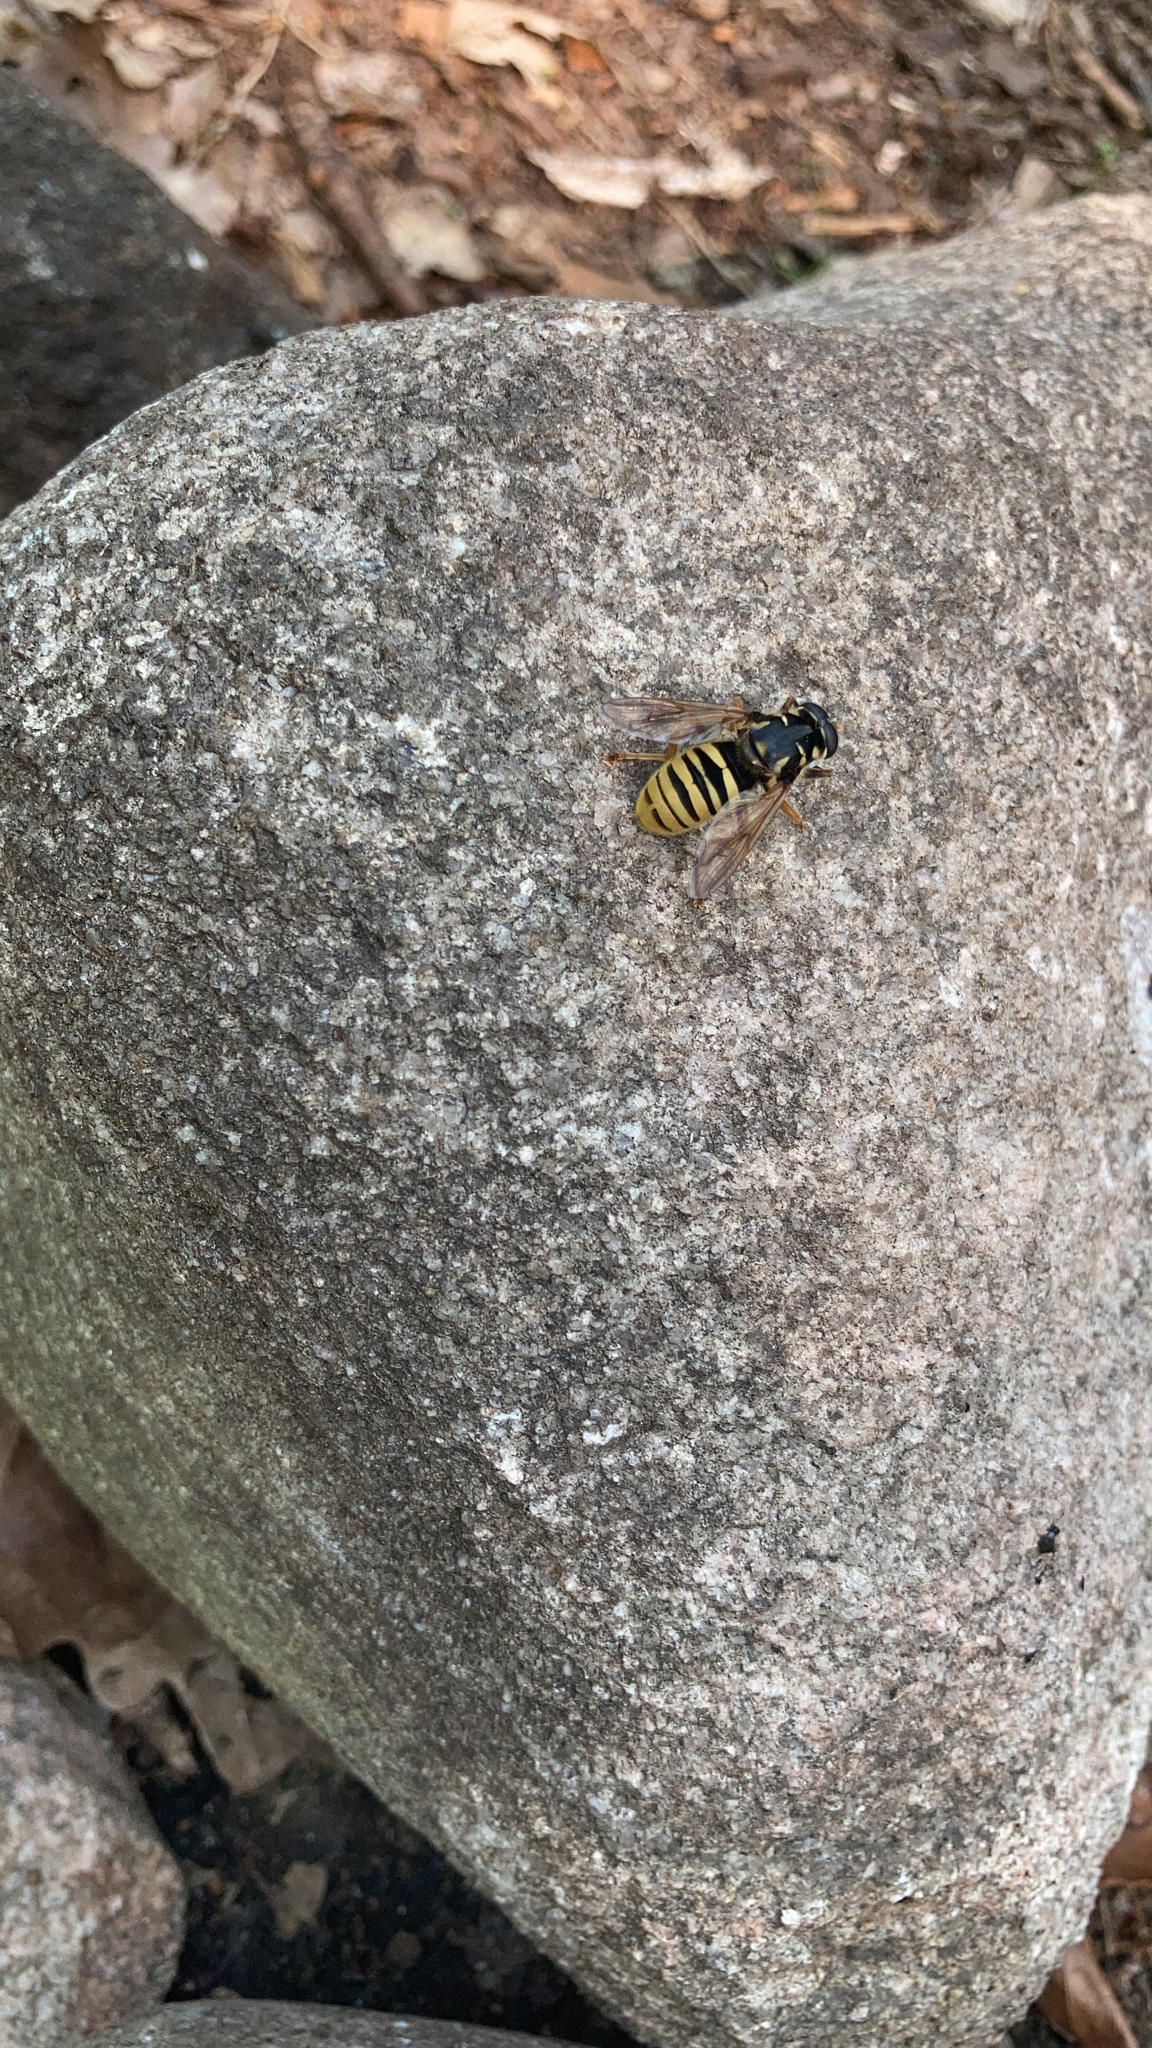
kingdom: Animalia
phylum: Arthropoda
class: Insecta
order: Diptera
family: Syrphidae
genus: Temnostoma
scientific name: Temnostoma vespiforme
